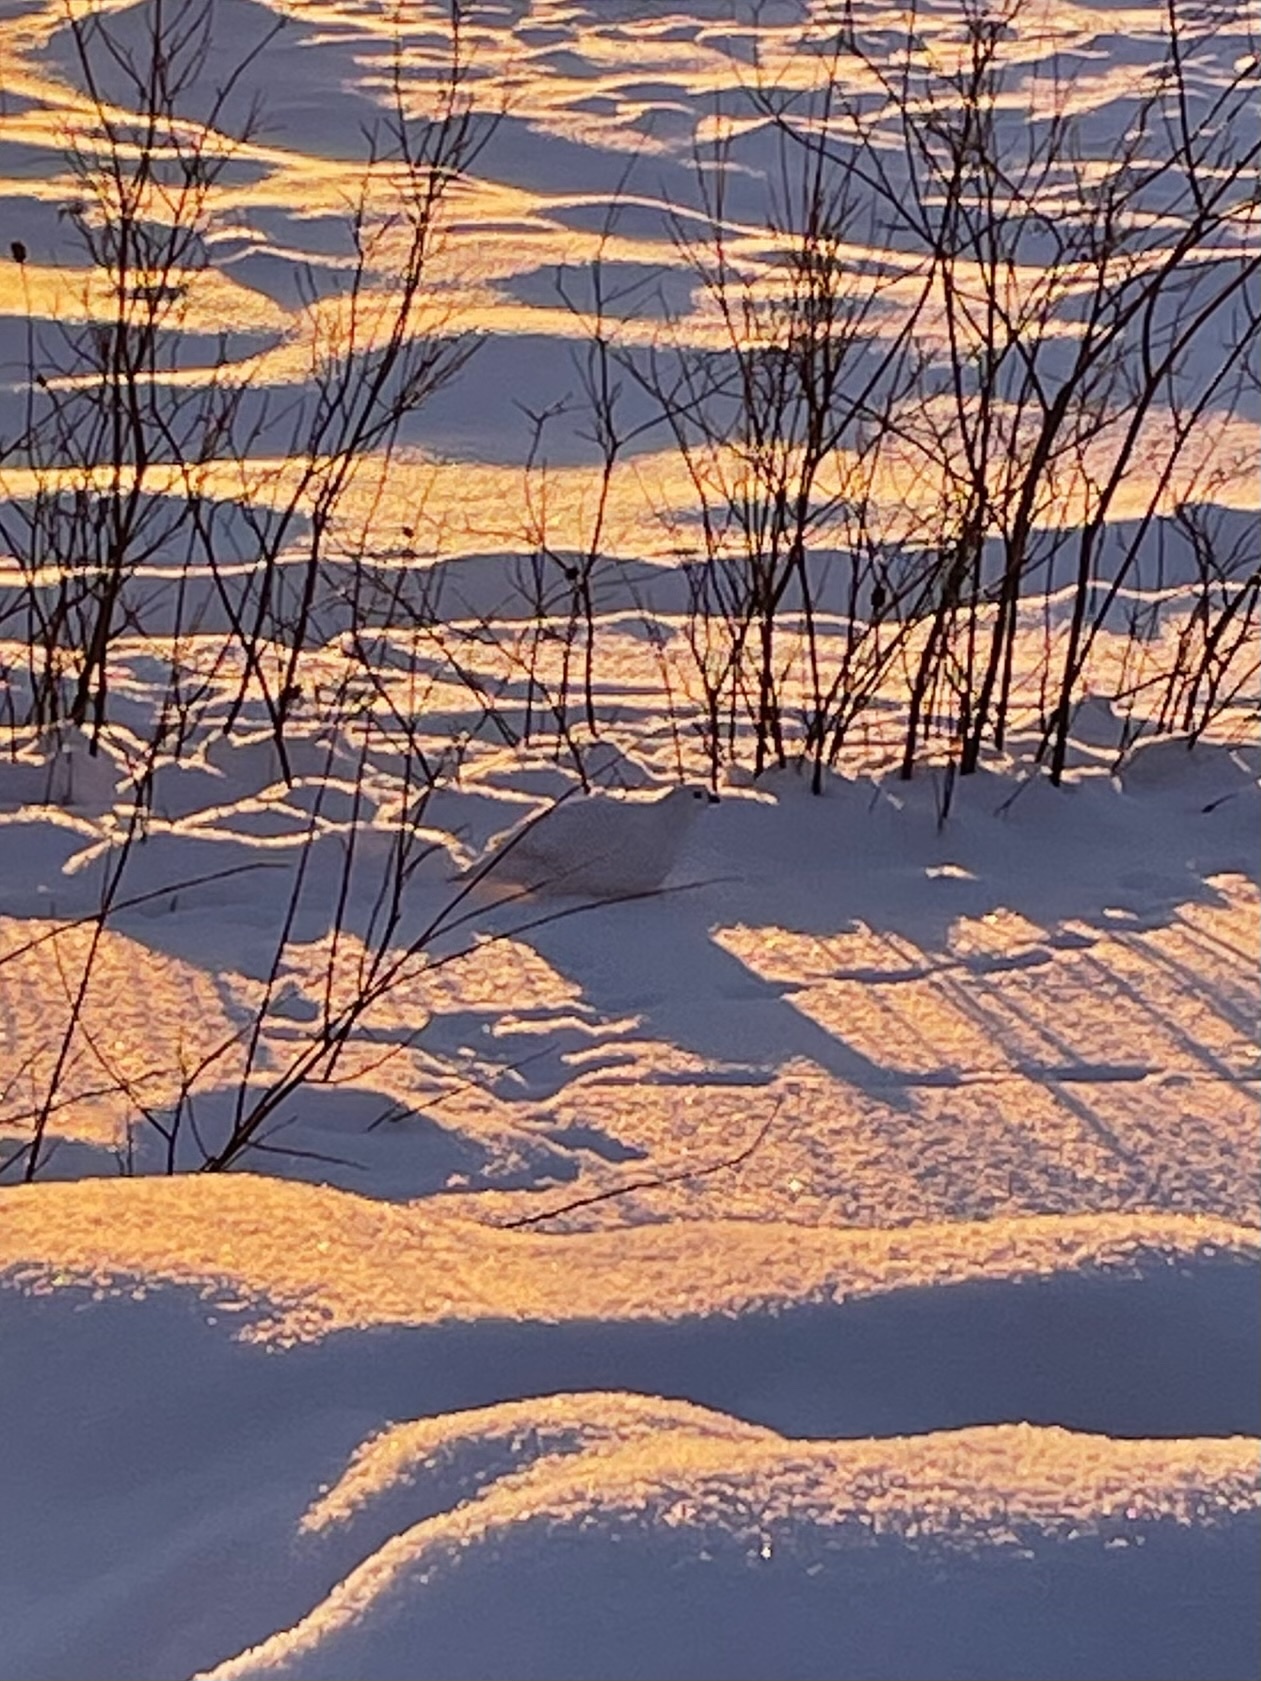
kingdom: Animalia
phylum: Chordata
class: Aves
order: Galliformes
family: Phasianidae
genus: Lagopus
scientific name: Lagopus lagopus
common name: Willow ptarmigan
